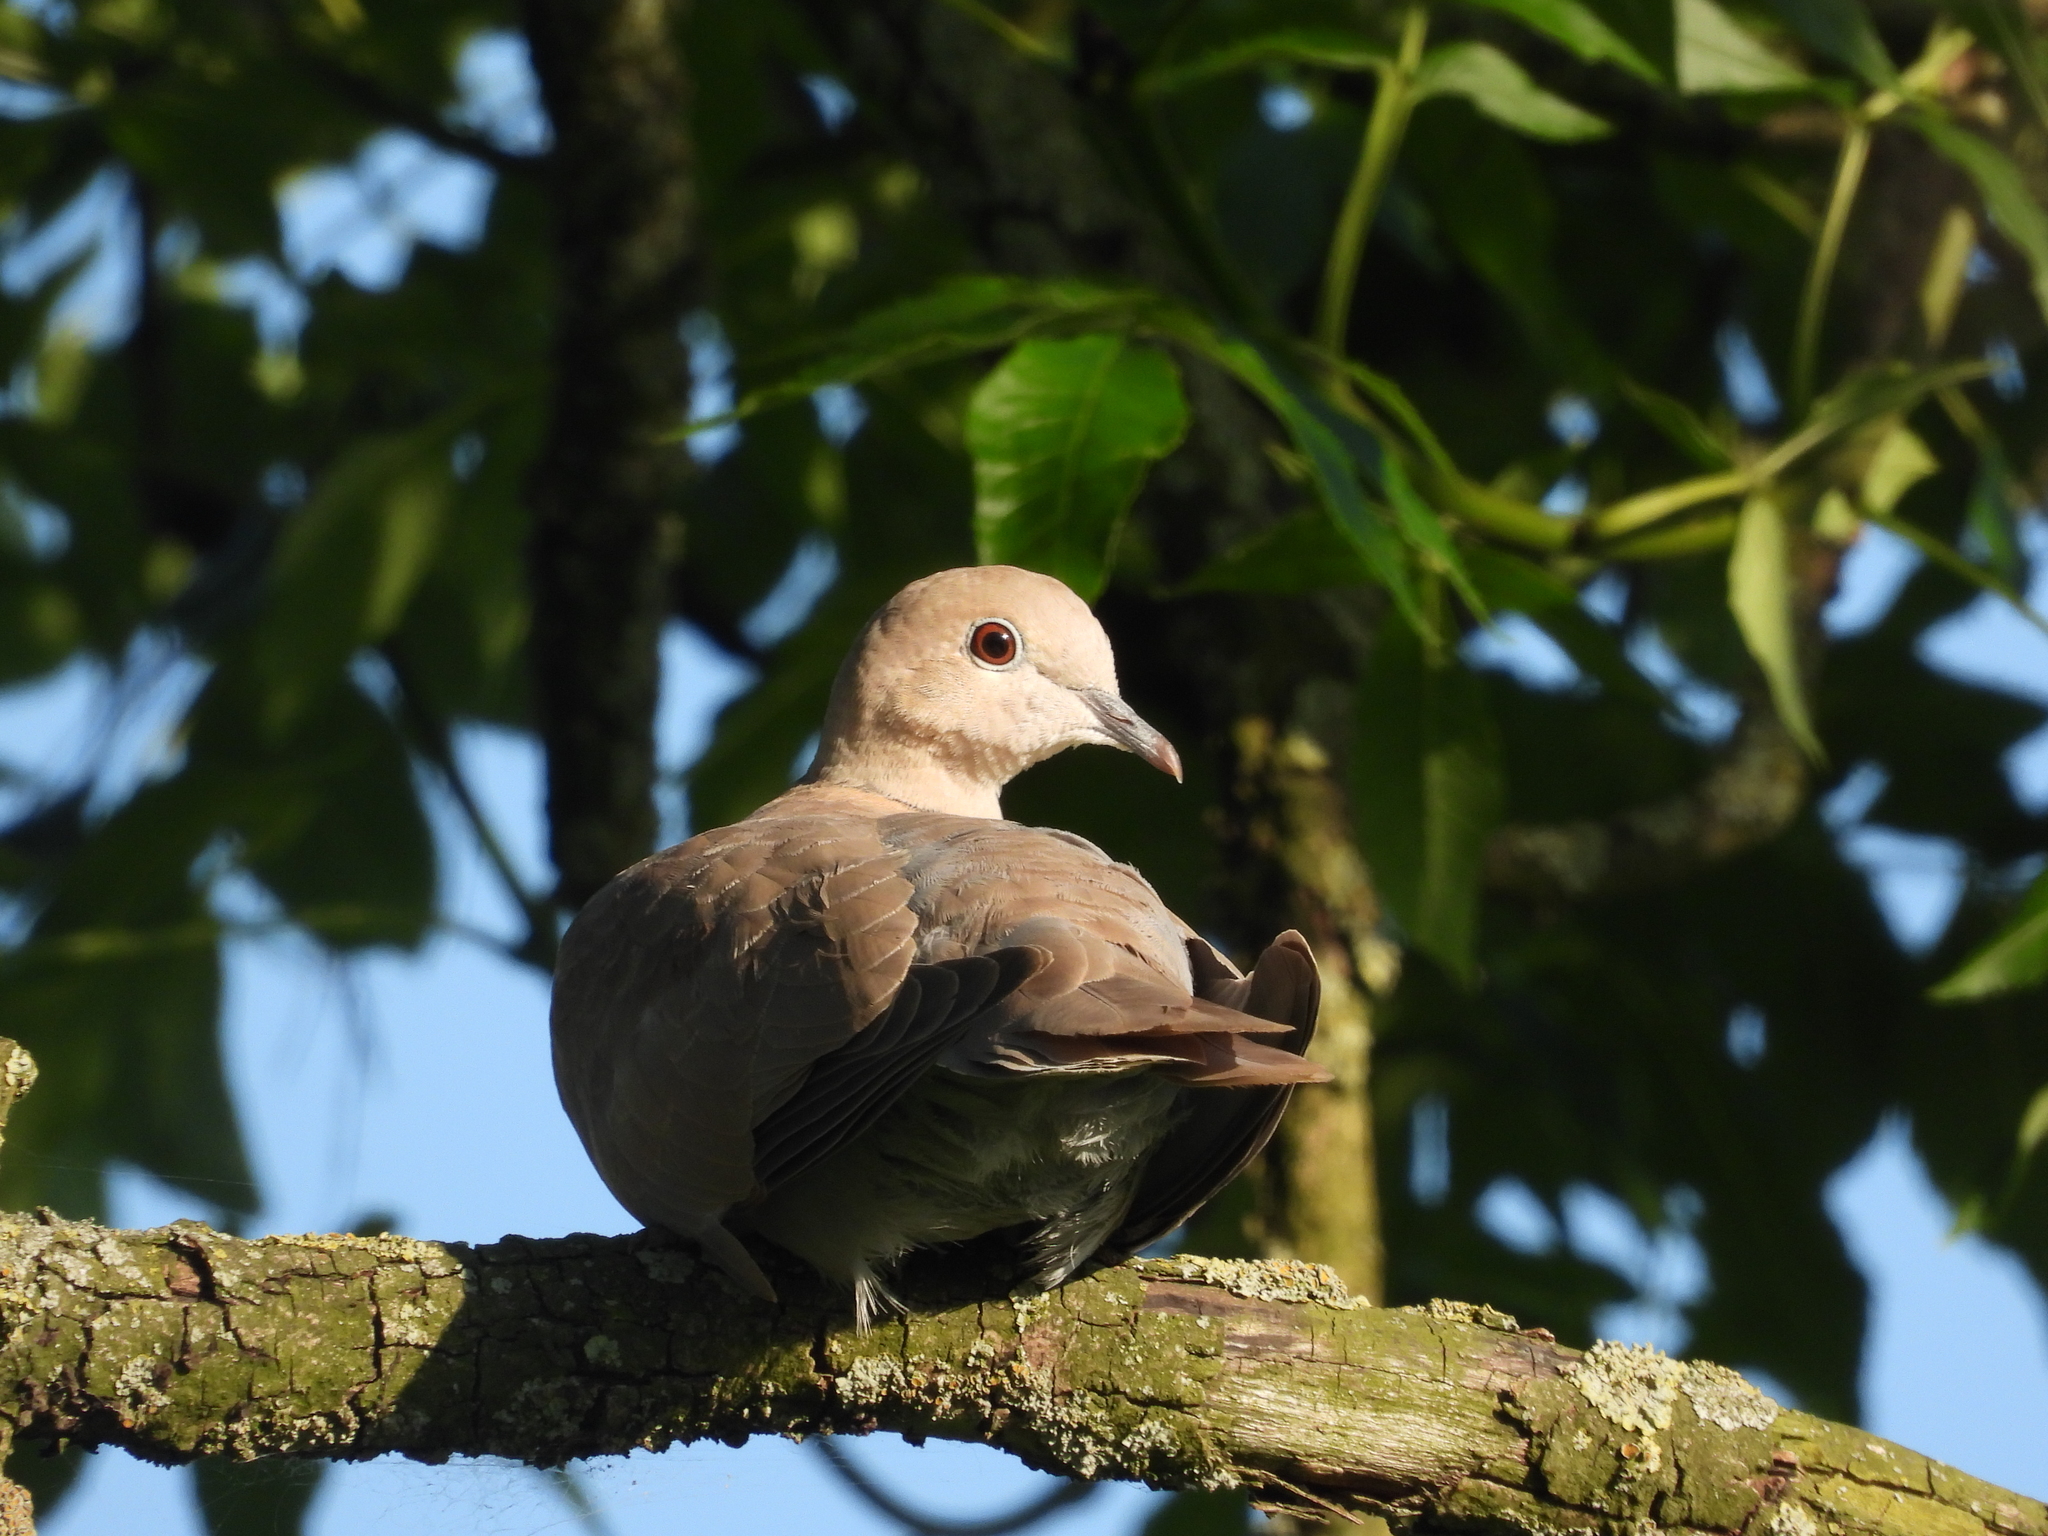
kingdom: Animalia
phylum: Chordata
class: Aves
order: Columbiformes
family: Columbidae
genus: Streptopelia
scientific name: Streptopelia decaocto
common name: Eurasian collared dove
